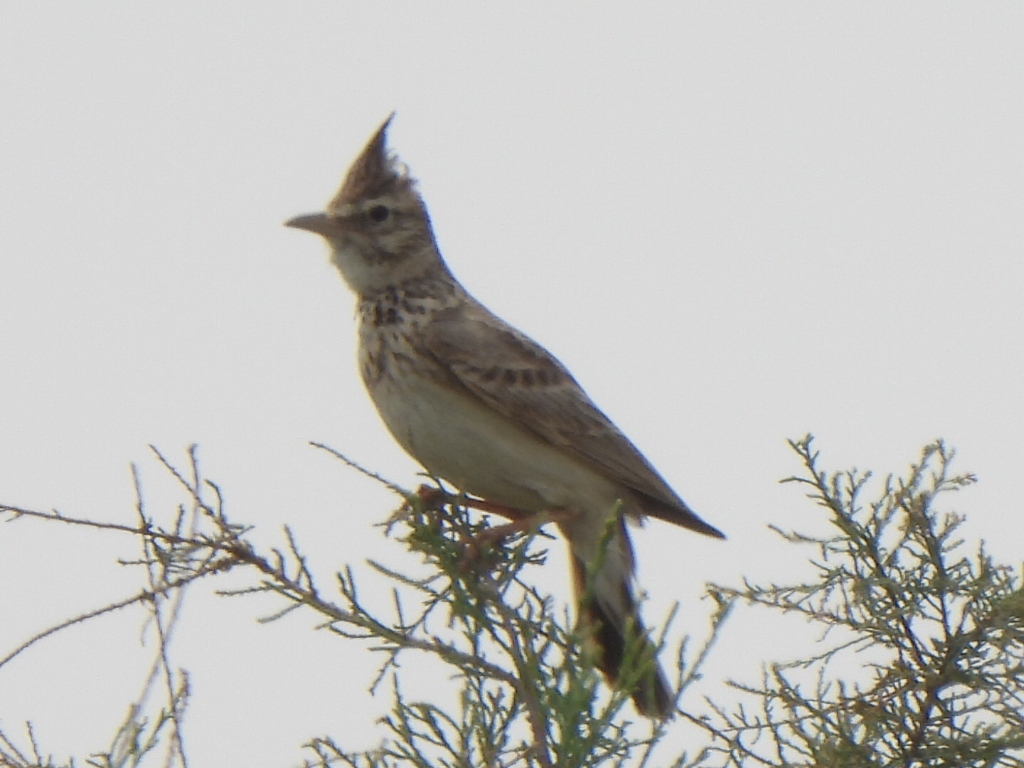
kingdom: Animalia
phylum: Chordata
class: Aves
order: Passeriformes
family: Alaudidae
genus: Galerida
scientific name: Galerida cristata
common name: Crested lark
